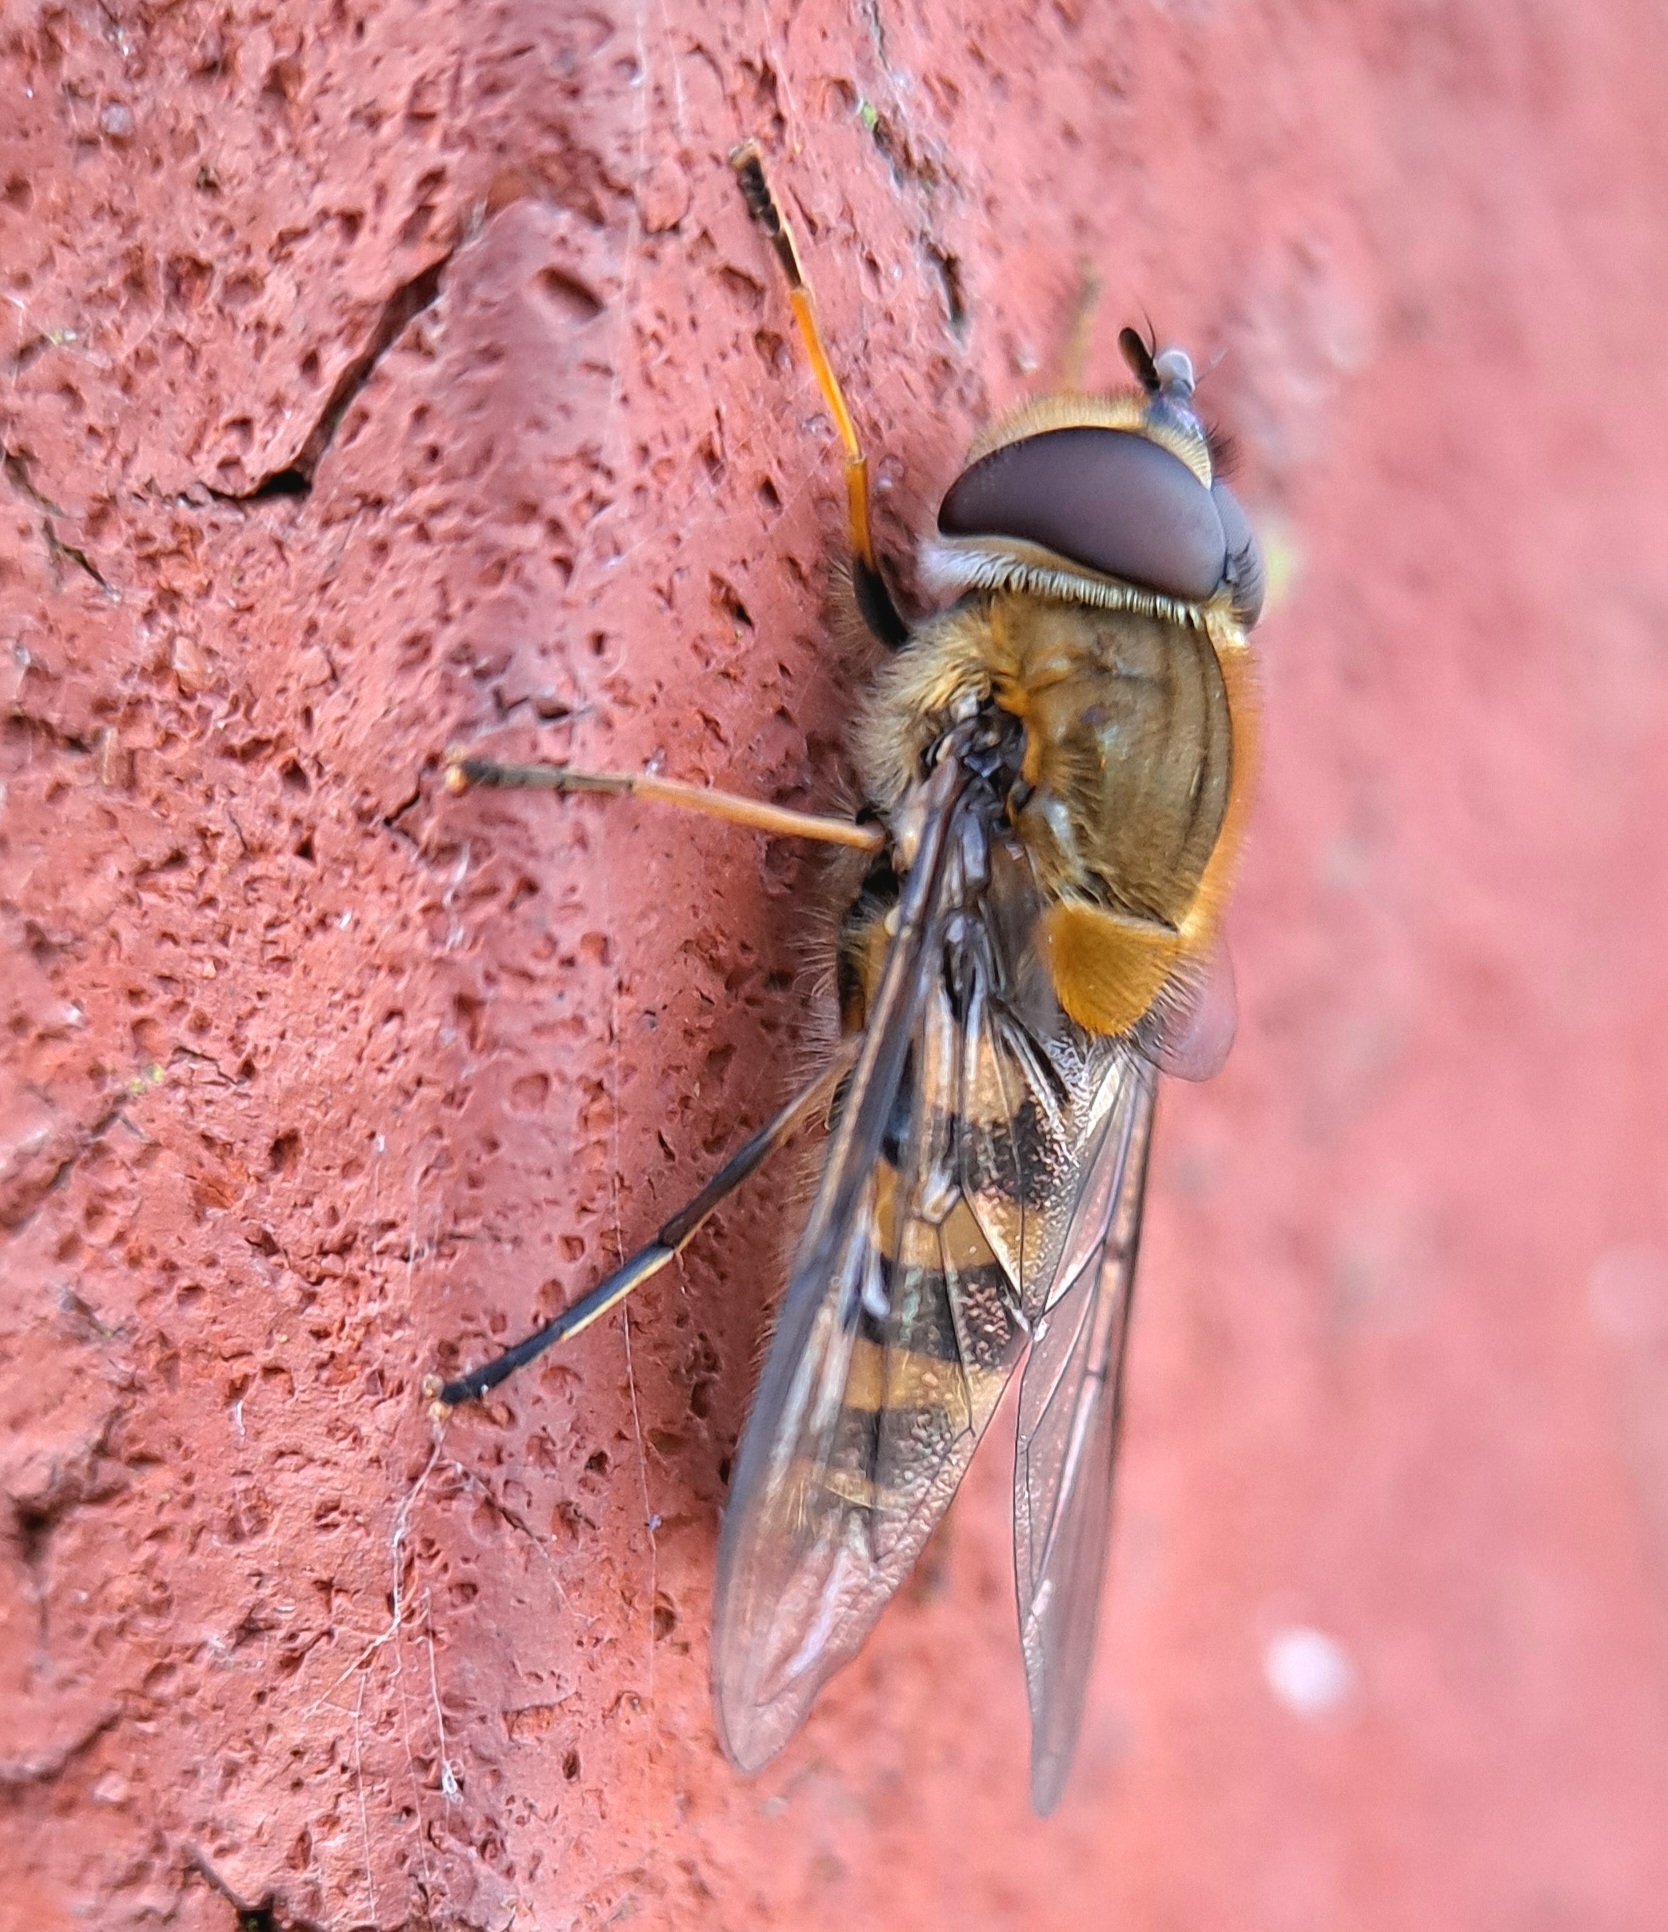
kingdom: Animalia
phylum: Arthropoda
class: Insecta
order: Diptera
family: Syrphidae
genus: Syrphus
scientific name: Syrphus torvus
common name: Hairy-eyed flower fly
